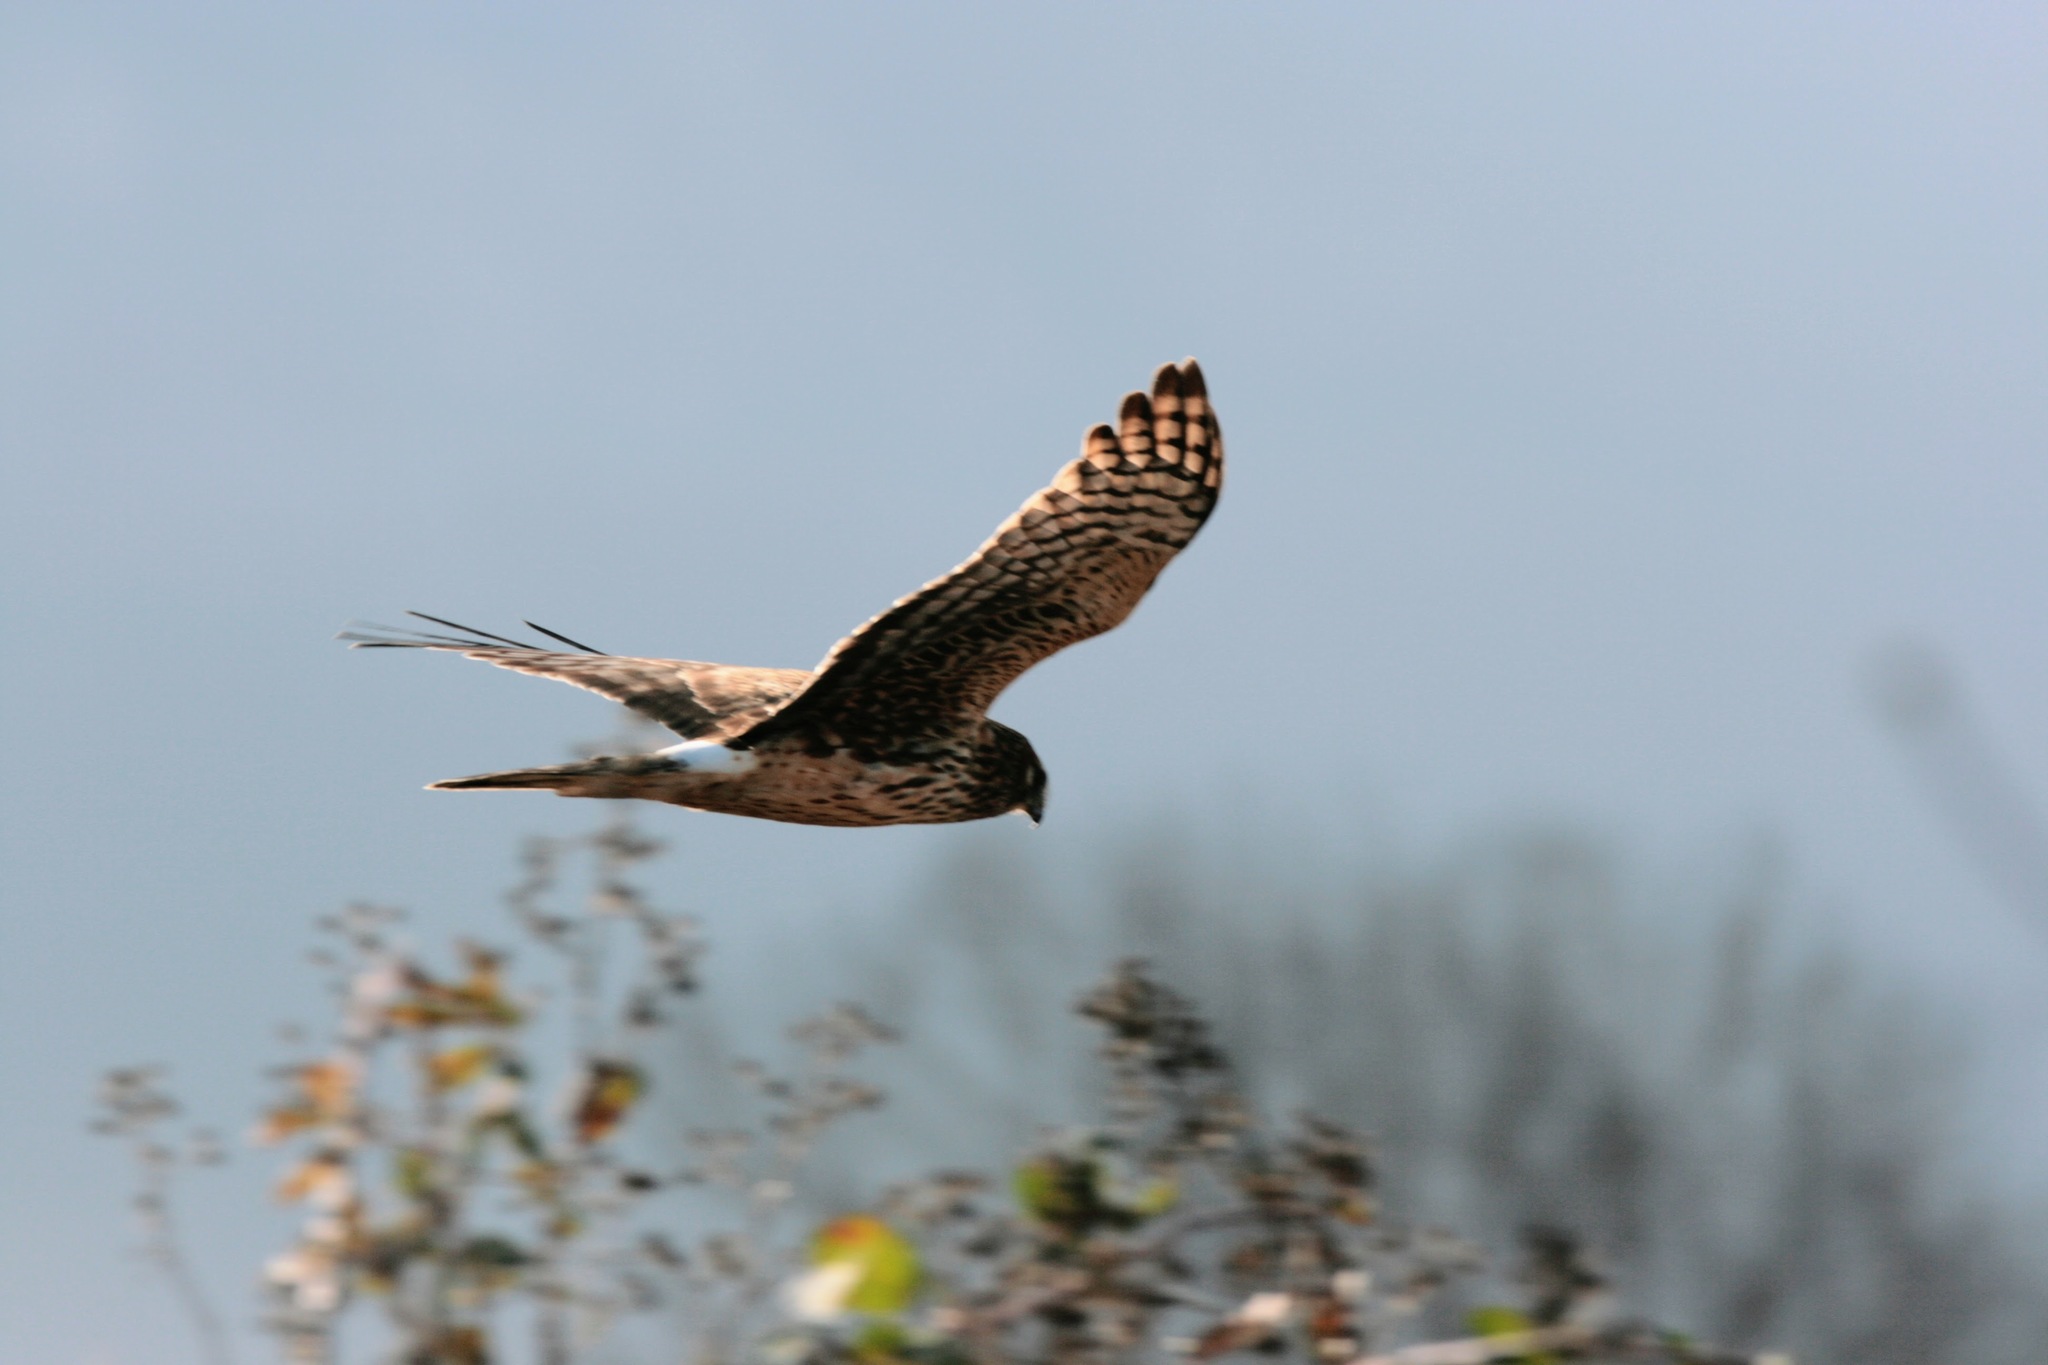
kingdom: Animalia
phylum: Chordata
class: Aves
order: Accipitriformes
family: Accipitridae
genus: Circus
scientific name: Circus cyaneus
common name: Hen harrier
